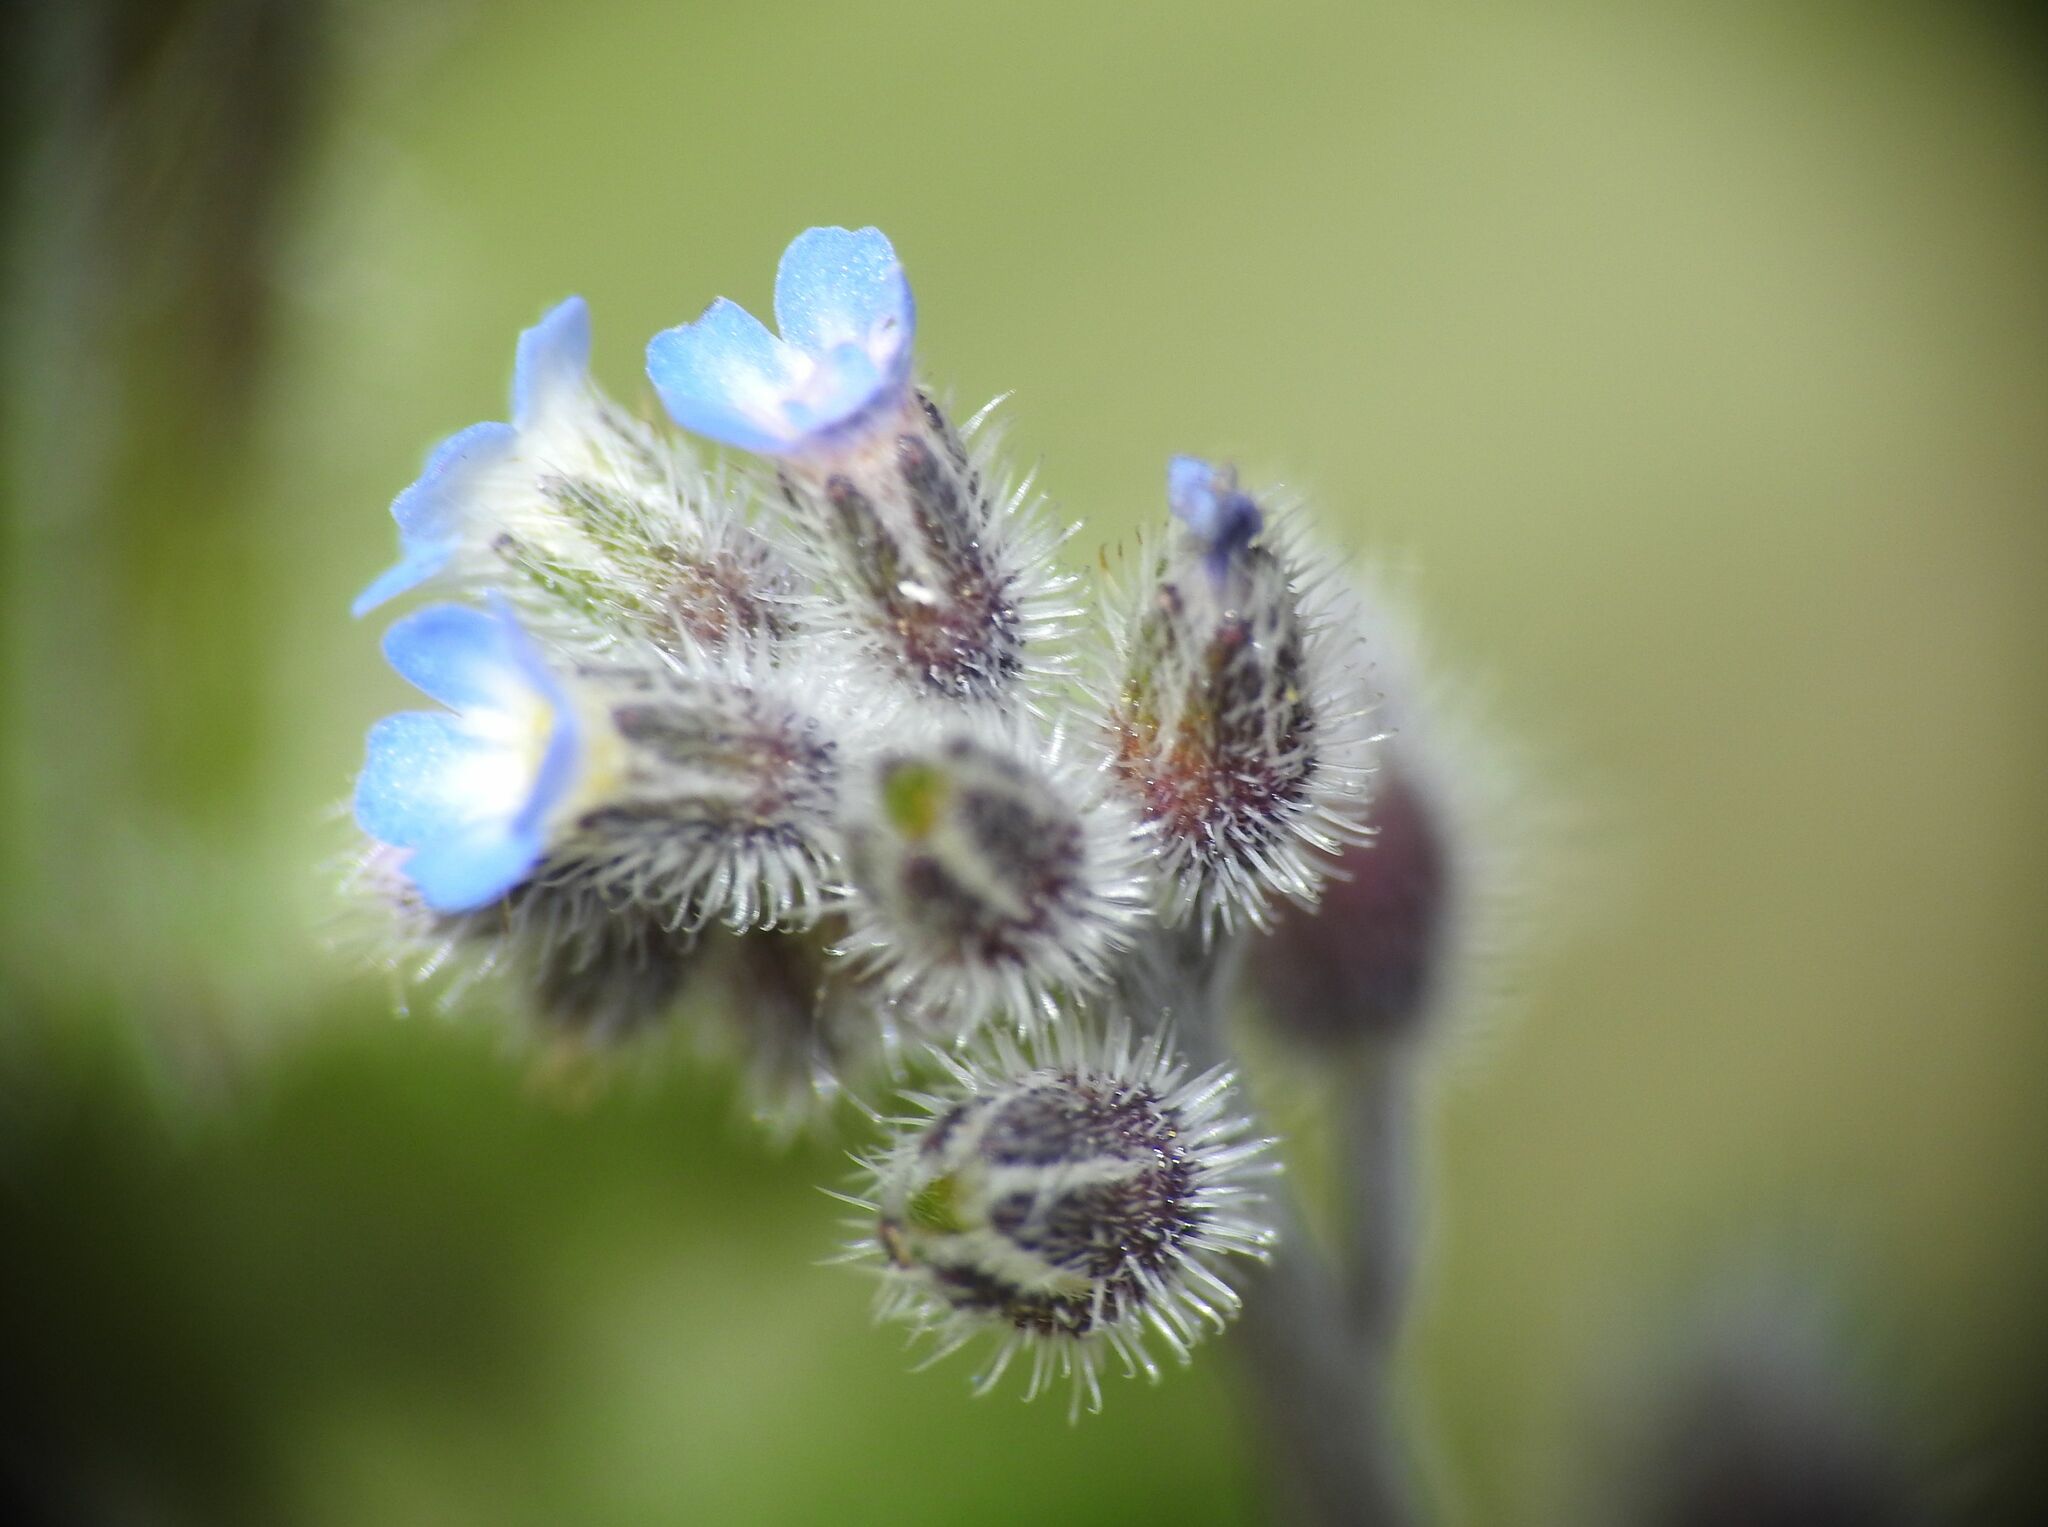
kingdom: Plantae
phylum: Tracheophyta
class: Magnoliopsida
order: Boraginales
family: Boraginaceae
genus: Myosotis
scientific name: Myosotis ramosissima
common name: Early forget-me-not
